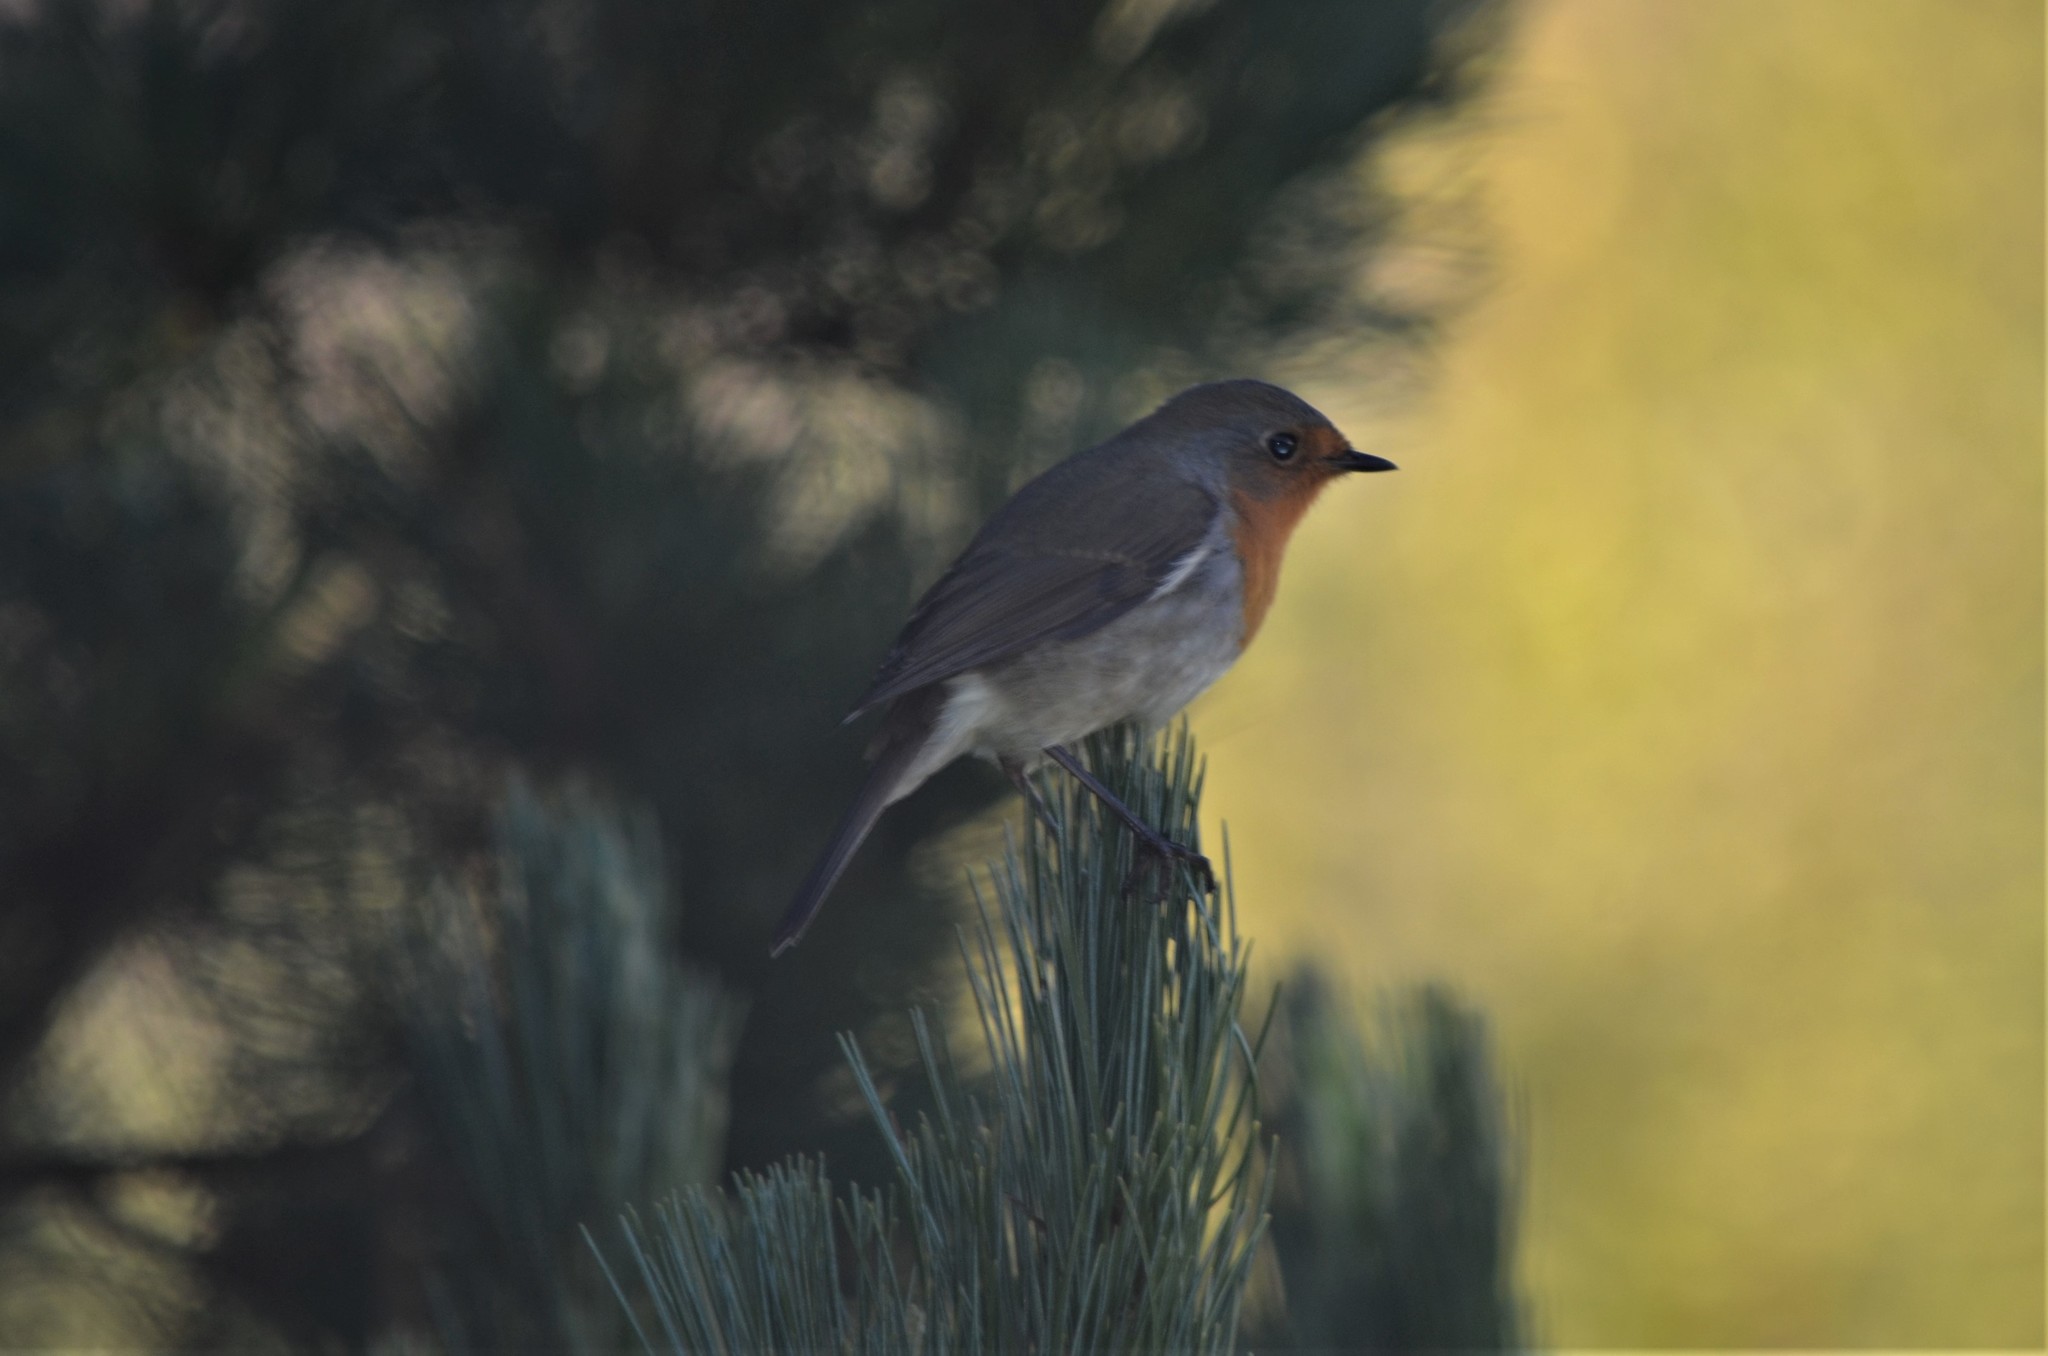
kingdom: Animalia
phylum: Chordata
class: Aves
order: Passeriformes
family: Muscicapidae
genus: Erithacus
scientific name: Erithacus rubecula
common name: European robin
